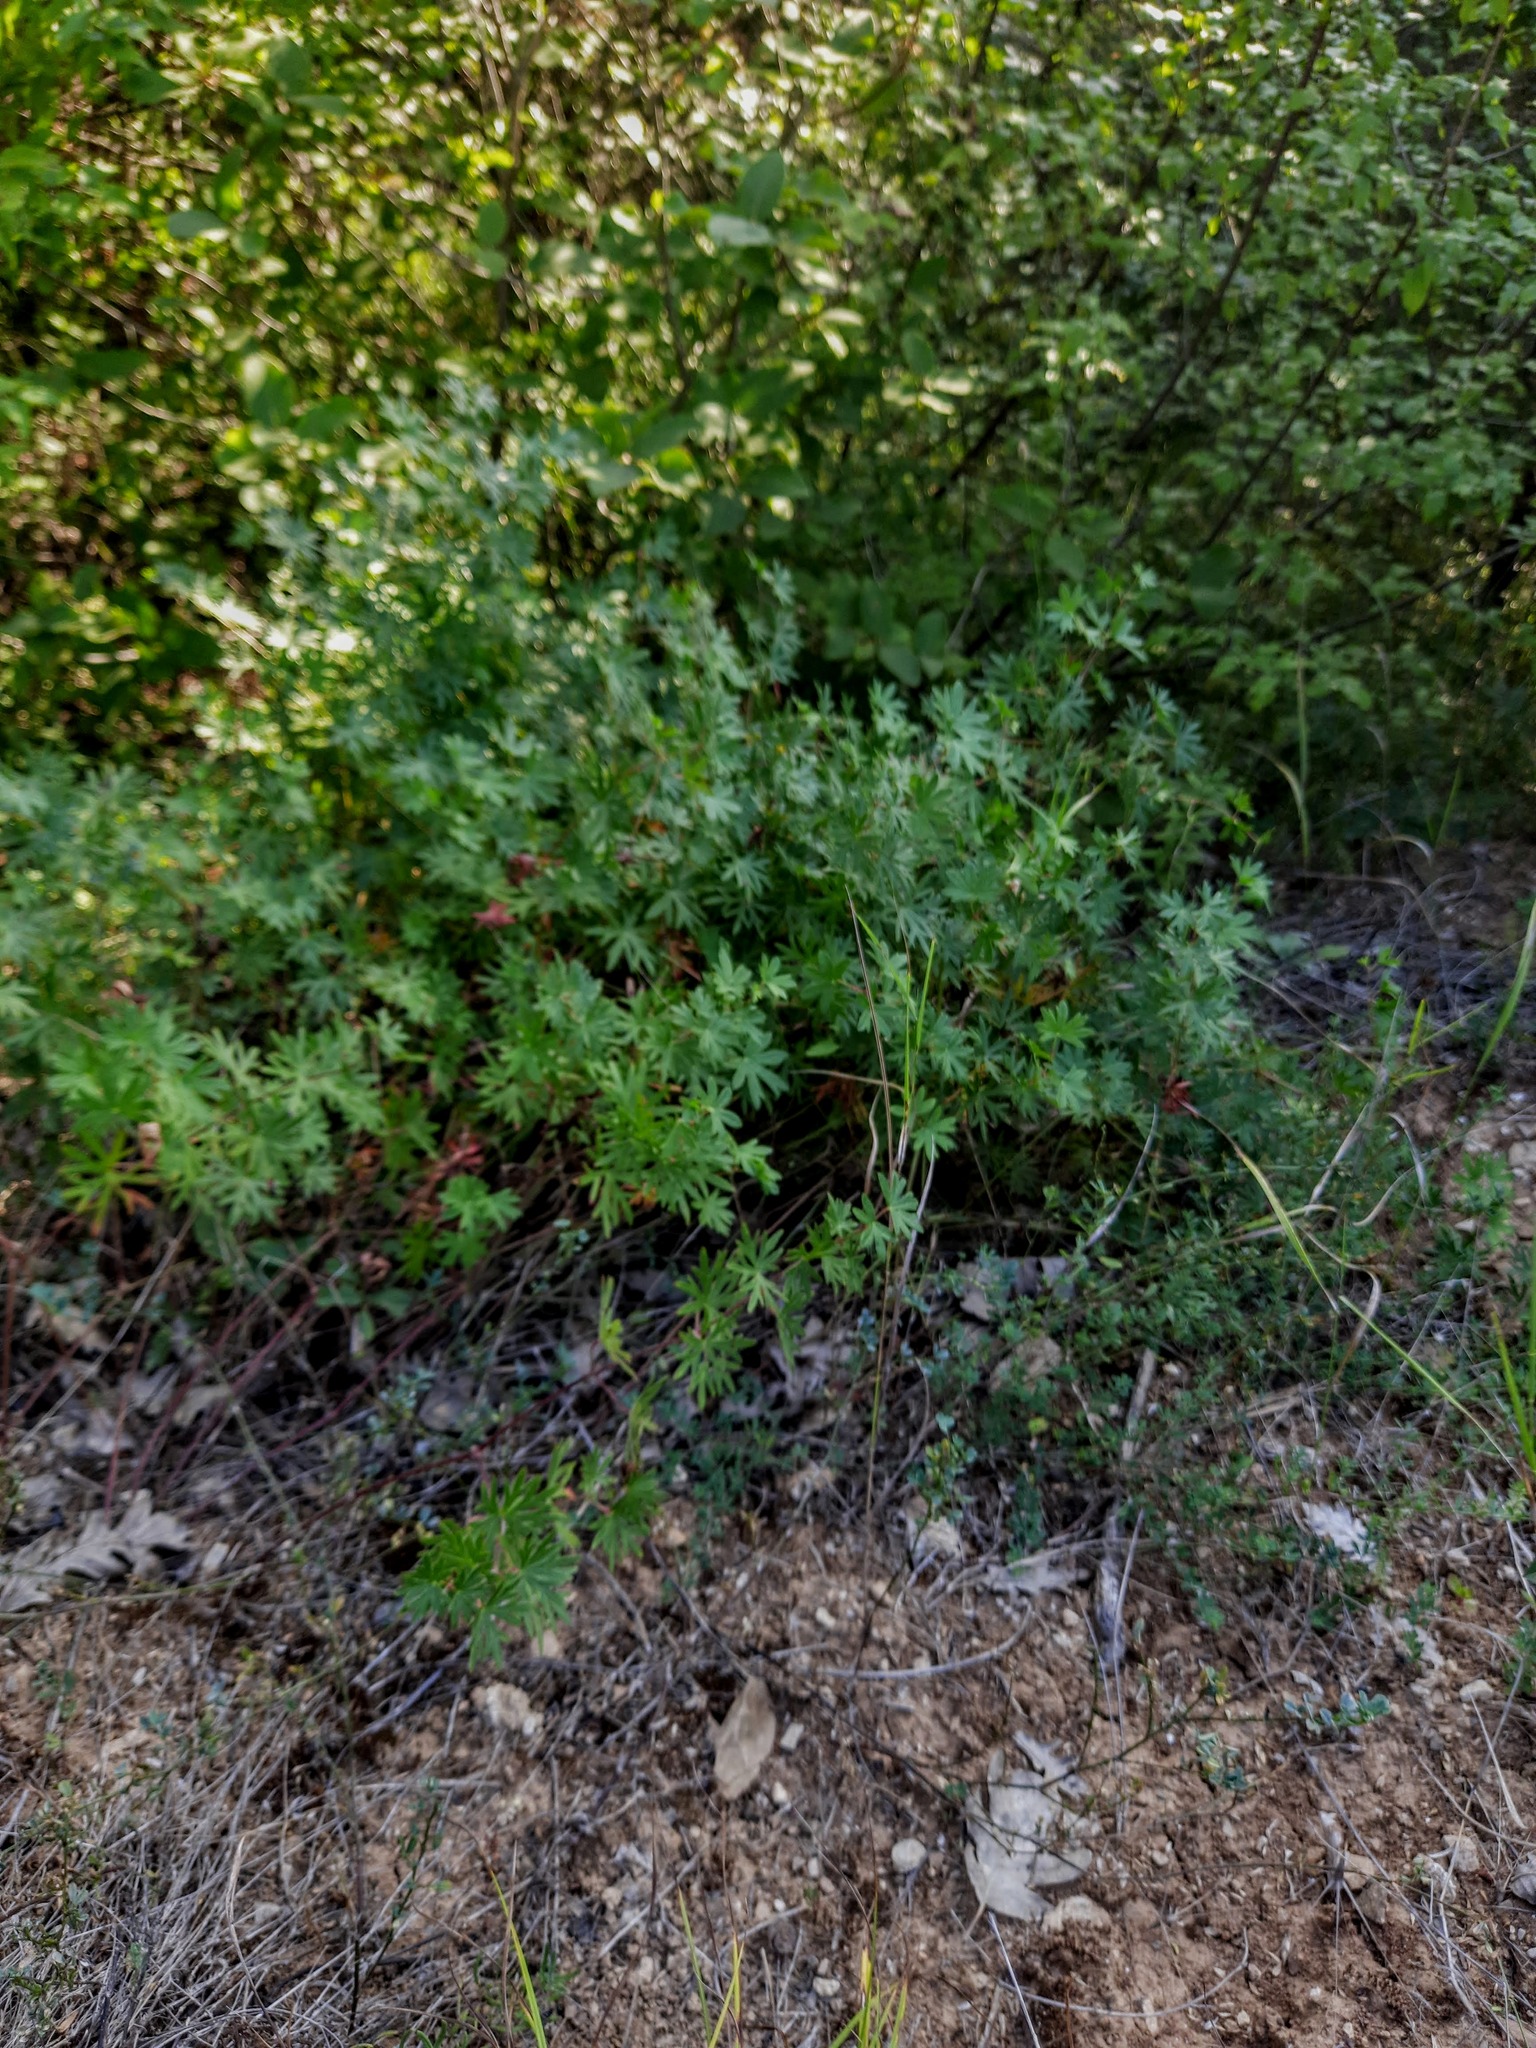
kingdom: Plantae
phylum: Tracheophyta
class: Magnoliopsida
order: Geraniales
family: Geraniaceae
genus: Geranium
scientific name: Geranium sanguineum
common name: Bloody crane's-bill
